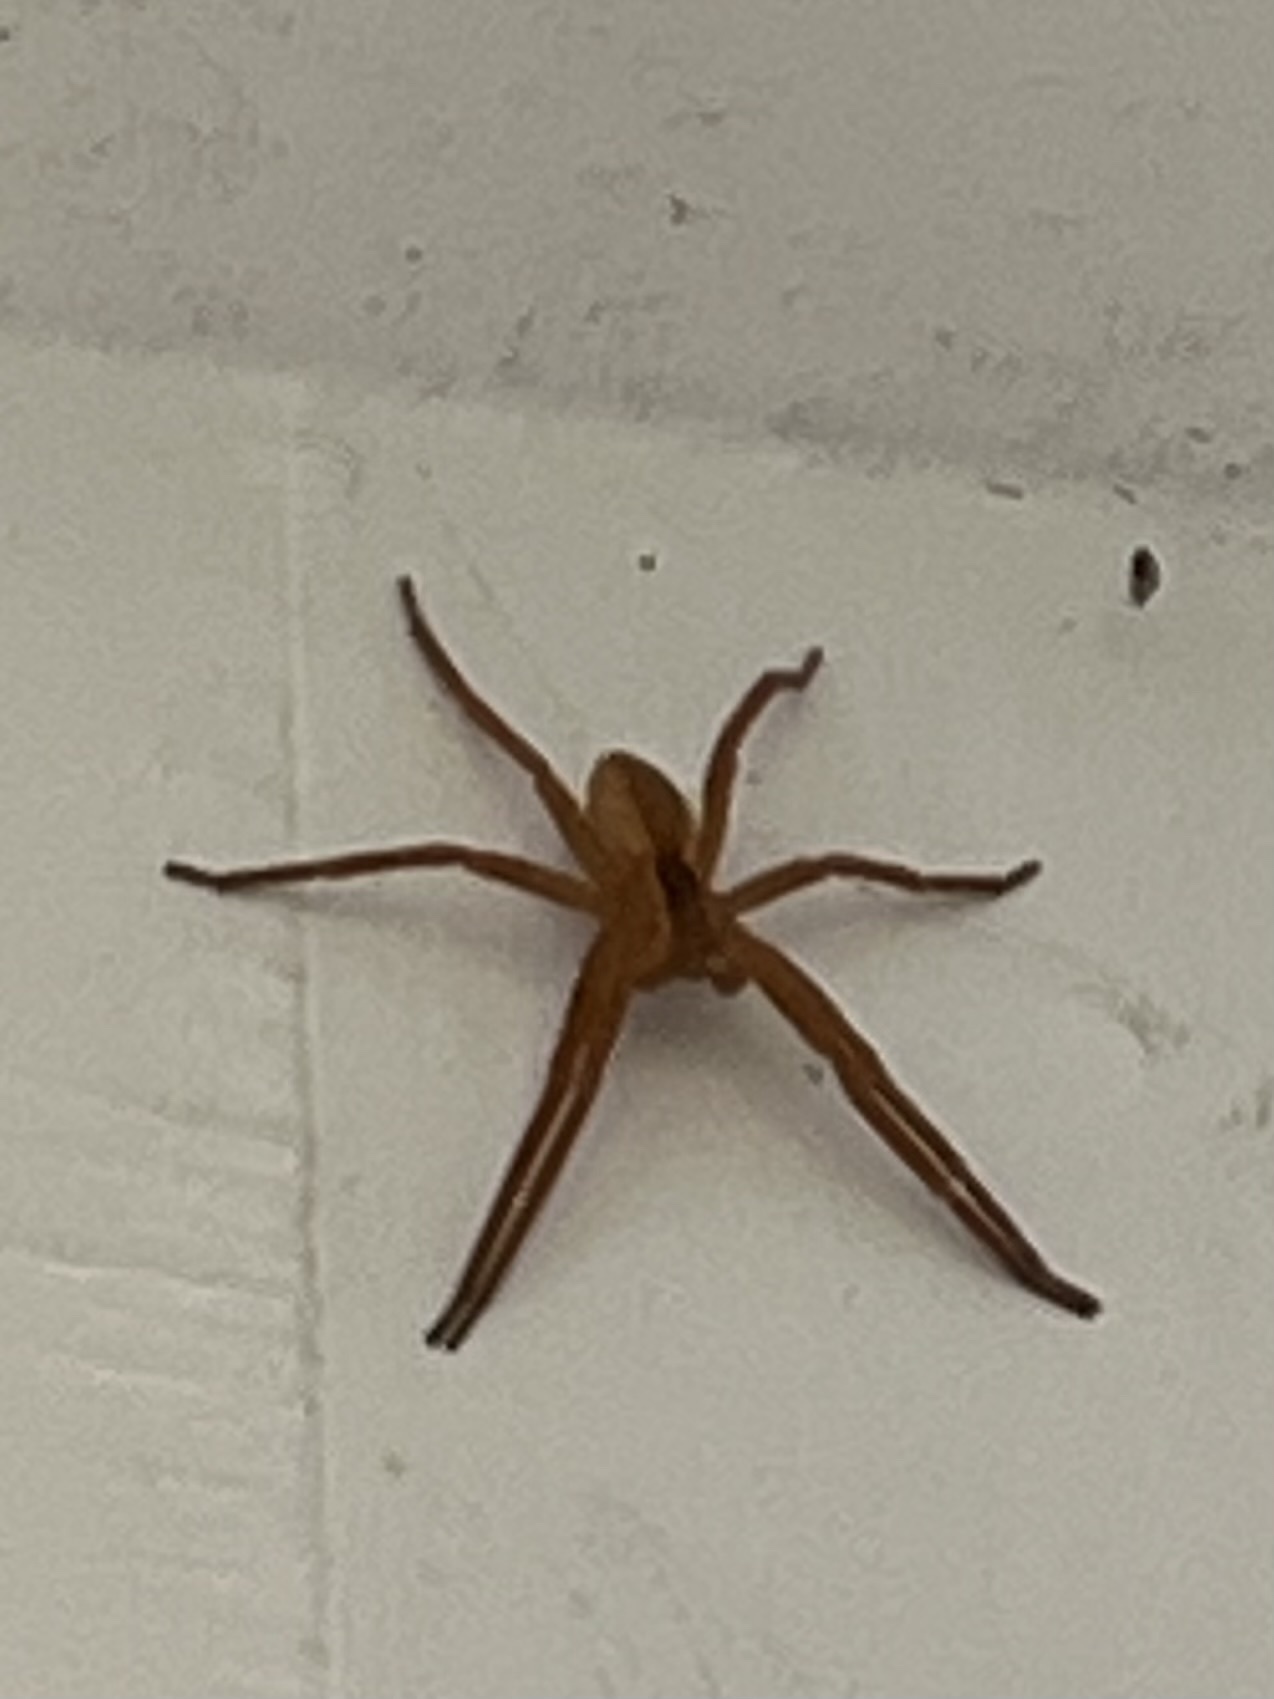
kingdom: Animalia
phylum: Arthropoda
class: Arachnida
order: Araneae
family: Pisauridae
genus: Pisaurina
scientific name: Pisaurina mira
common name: American nursery web spider
